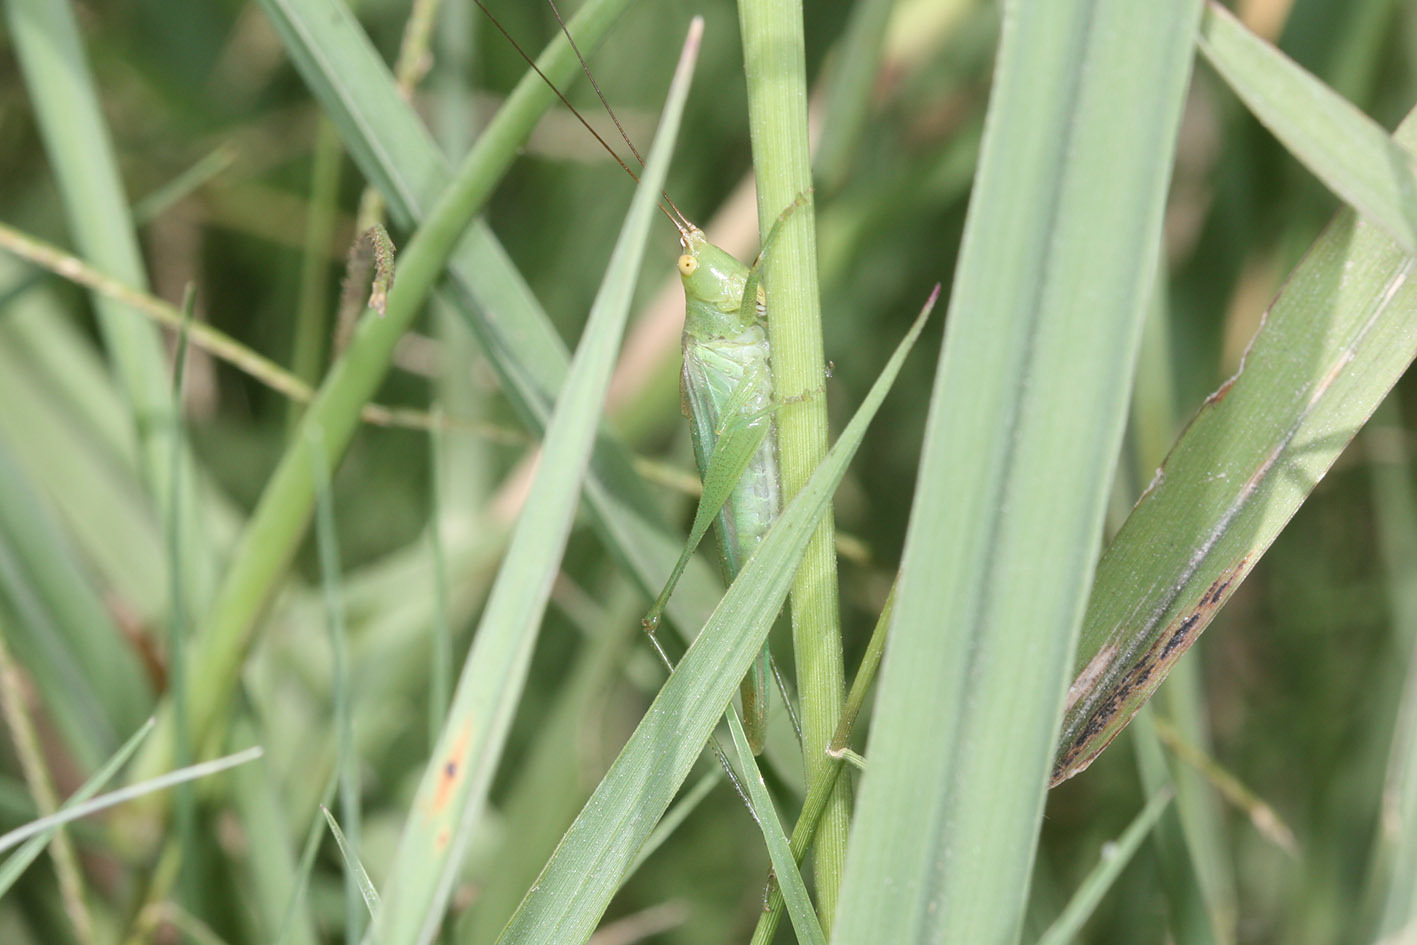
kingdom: Animalia
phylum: Arthropoda
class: Insecta
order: Orthoptera
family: Tettigoniidae
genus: Conocephalus
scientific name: Conocephalus longipes
